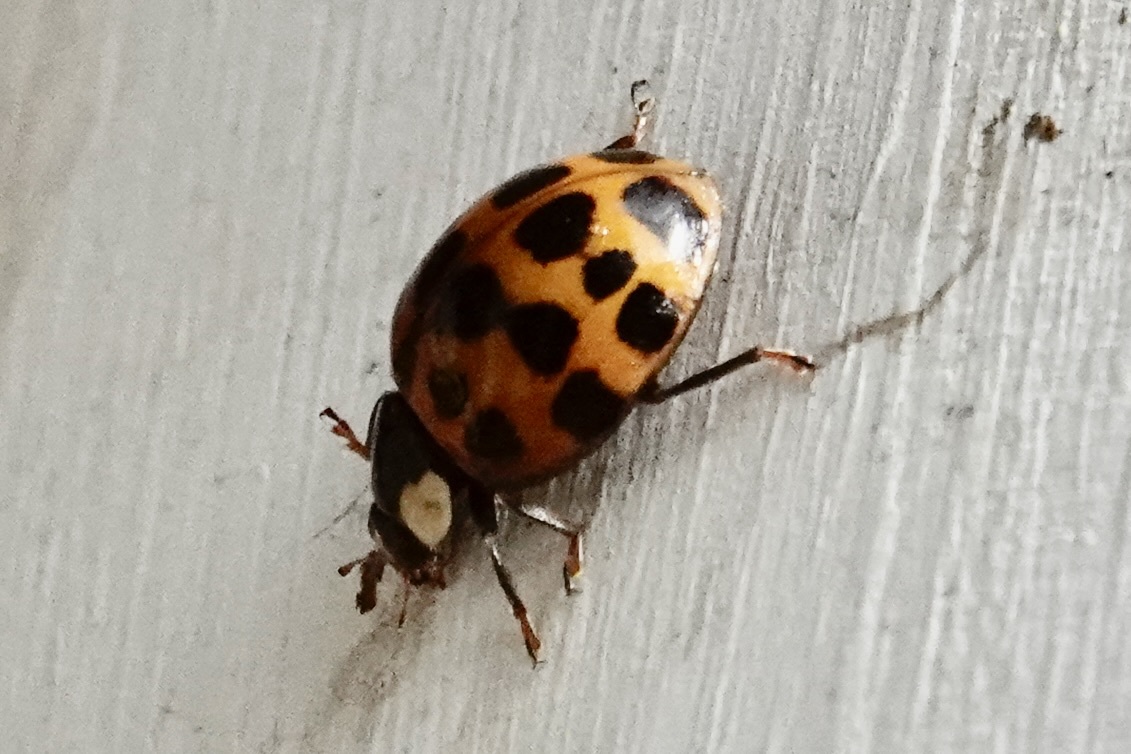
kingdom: Animalia
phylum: Arthropoda
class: Insecta
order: Coleoptera
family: Coccinellidae
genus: Harmonia
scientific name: Harmonia axyridis
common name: Harlequin ladybird
